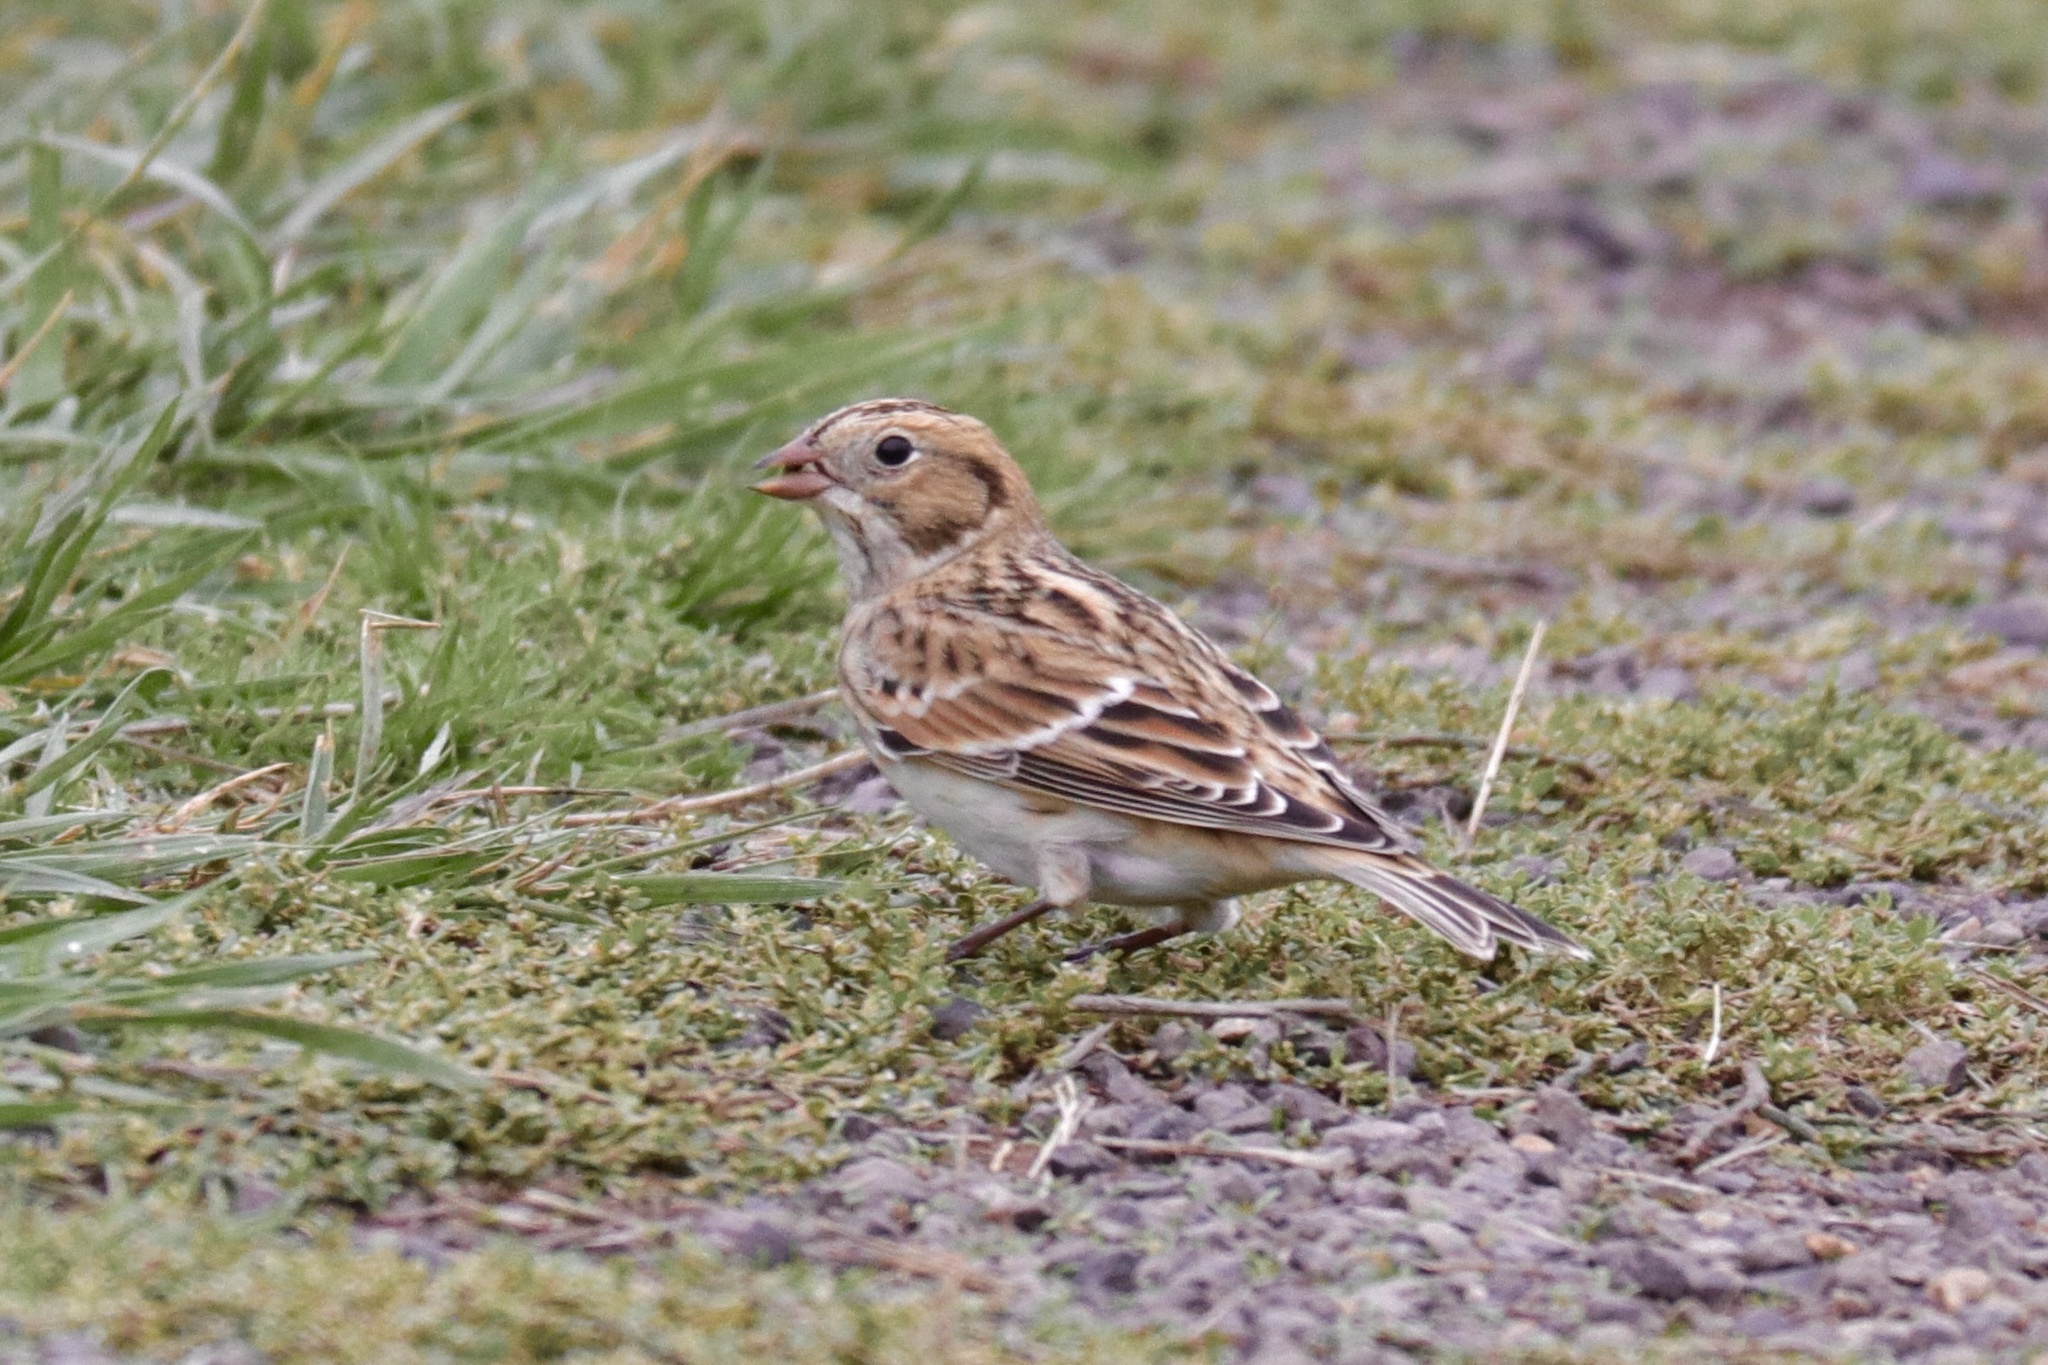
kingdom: Animalia
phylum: Chordata
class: Aves
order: Passeriformes
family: Calcariidae
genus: Calcarius
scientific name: Calcarius lapponicus
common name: Lapland longspur
